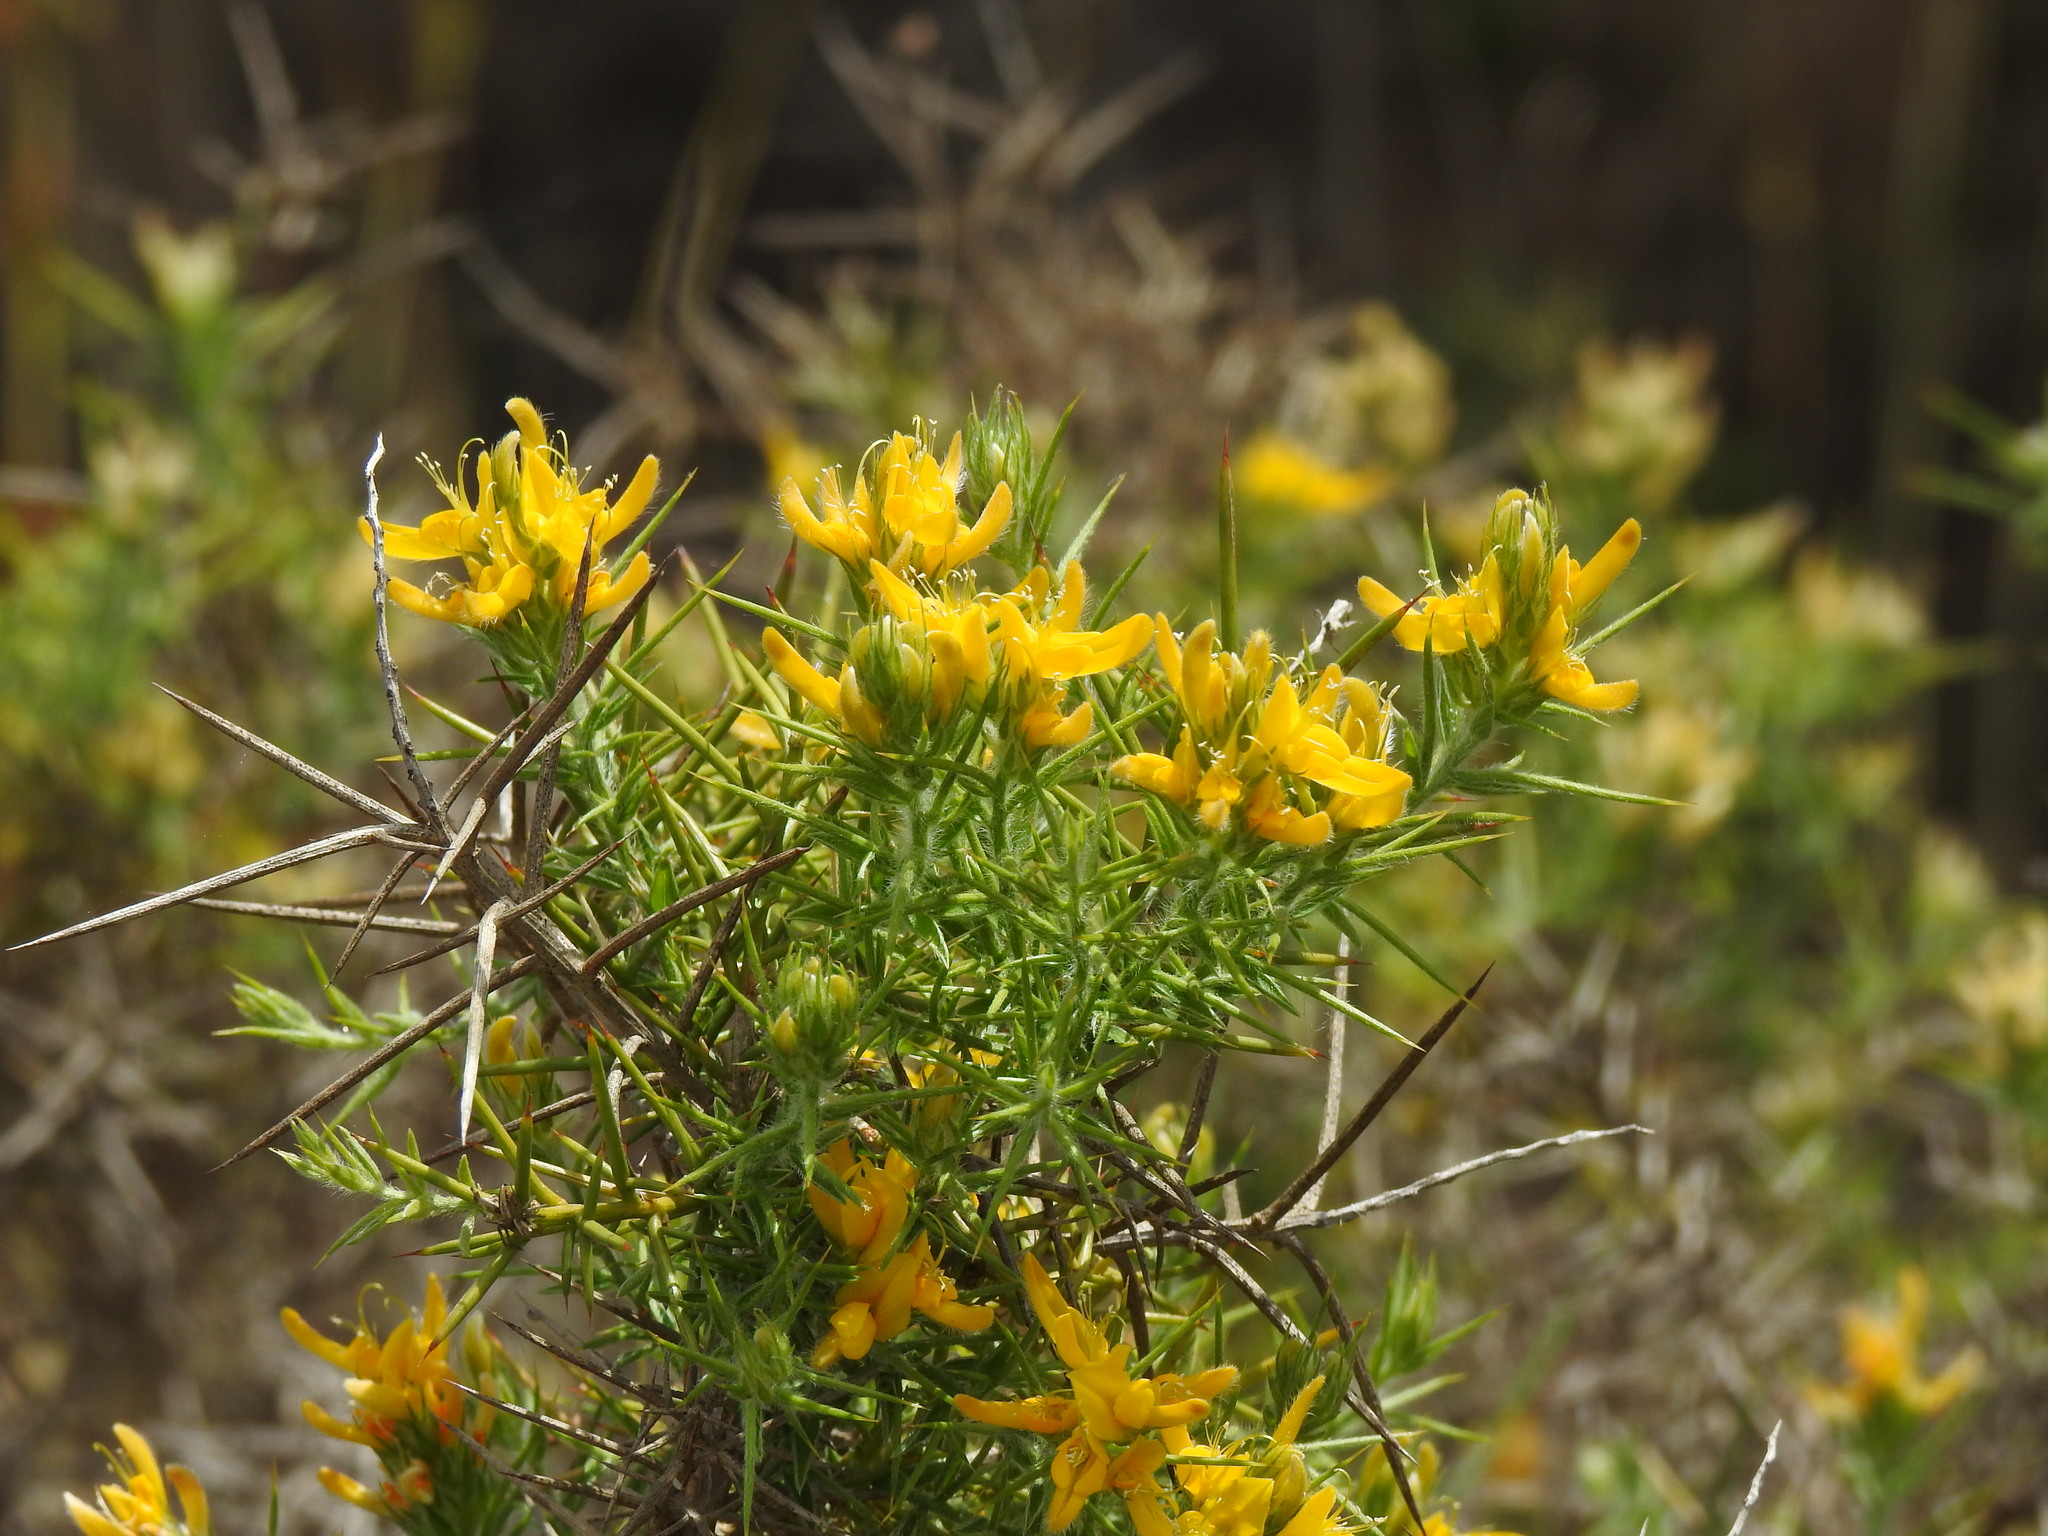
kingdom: Plantae
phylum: Tracheophyta
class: Magnoliopsida
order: Fabales
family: Fabaceae
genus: Genista
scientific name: Genista hirsuta
